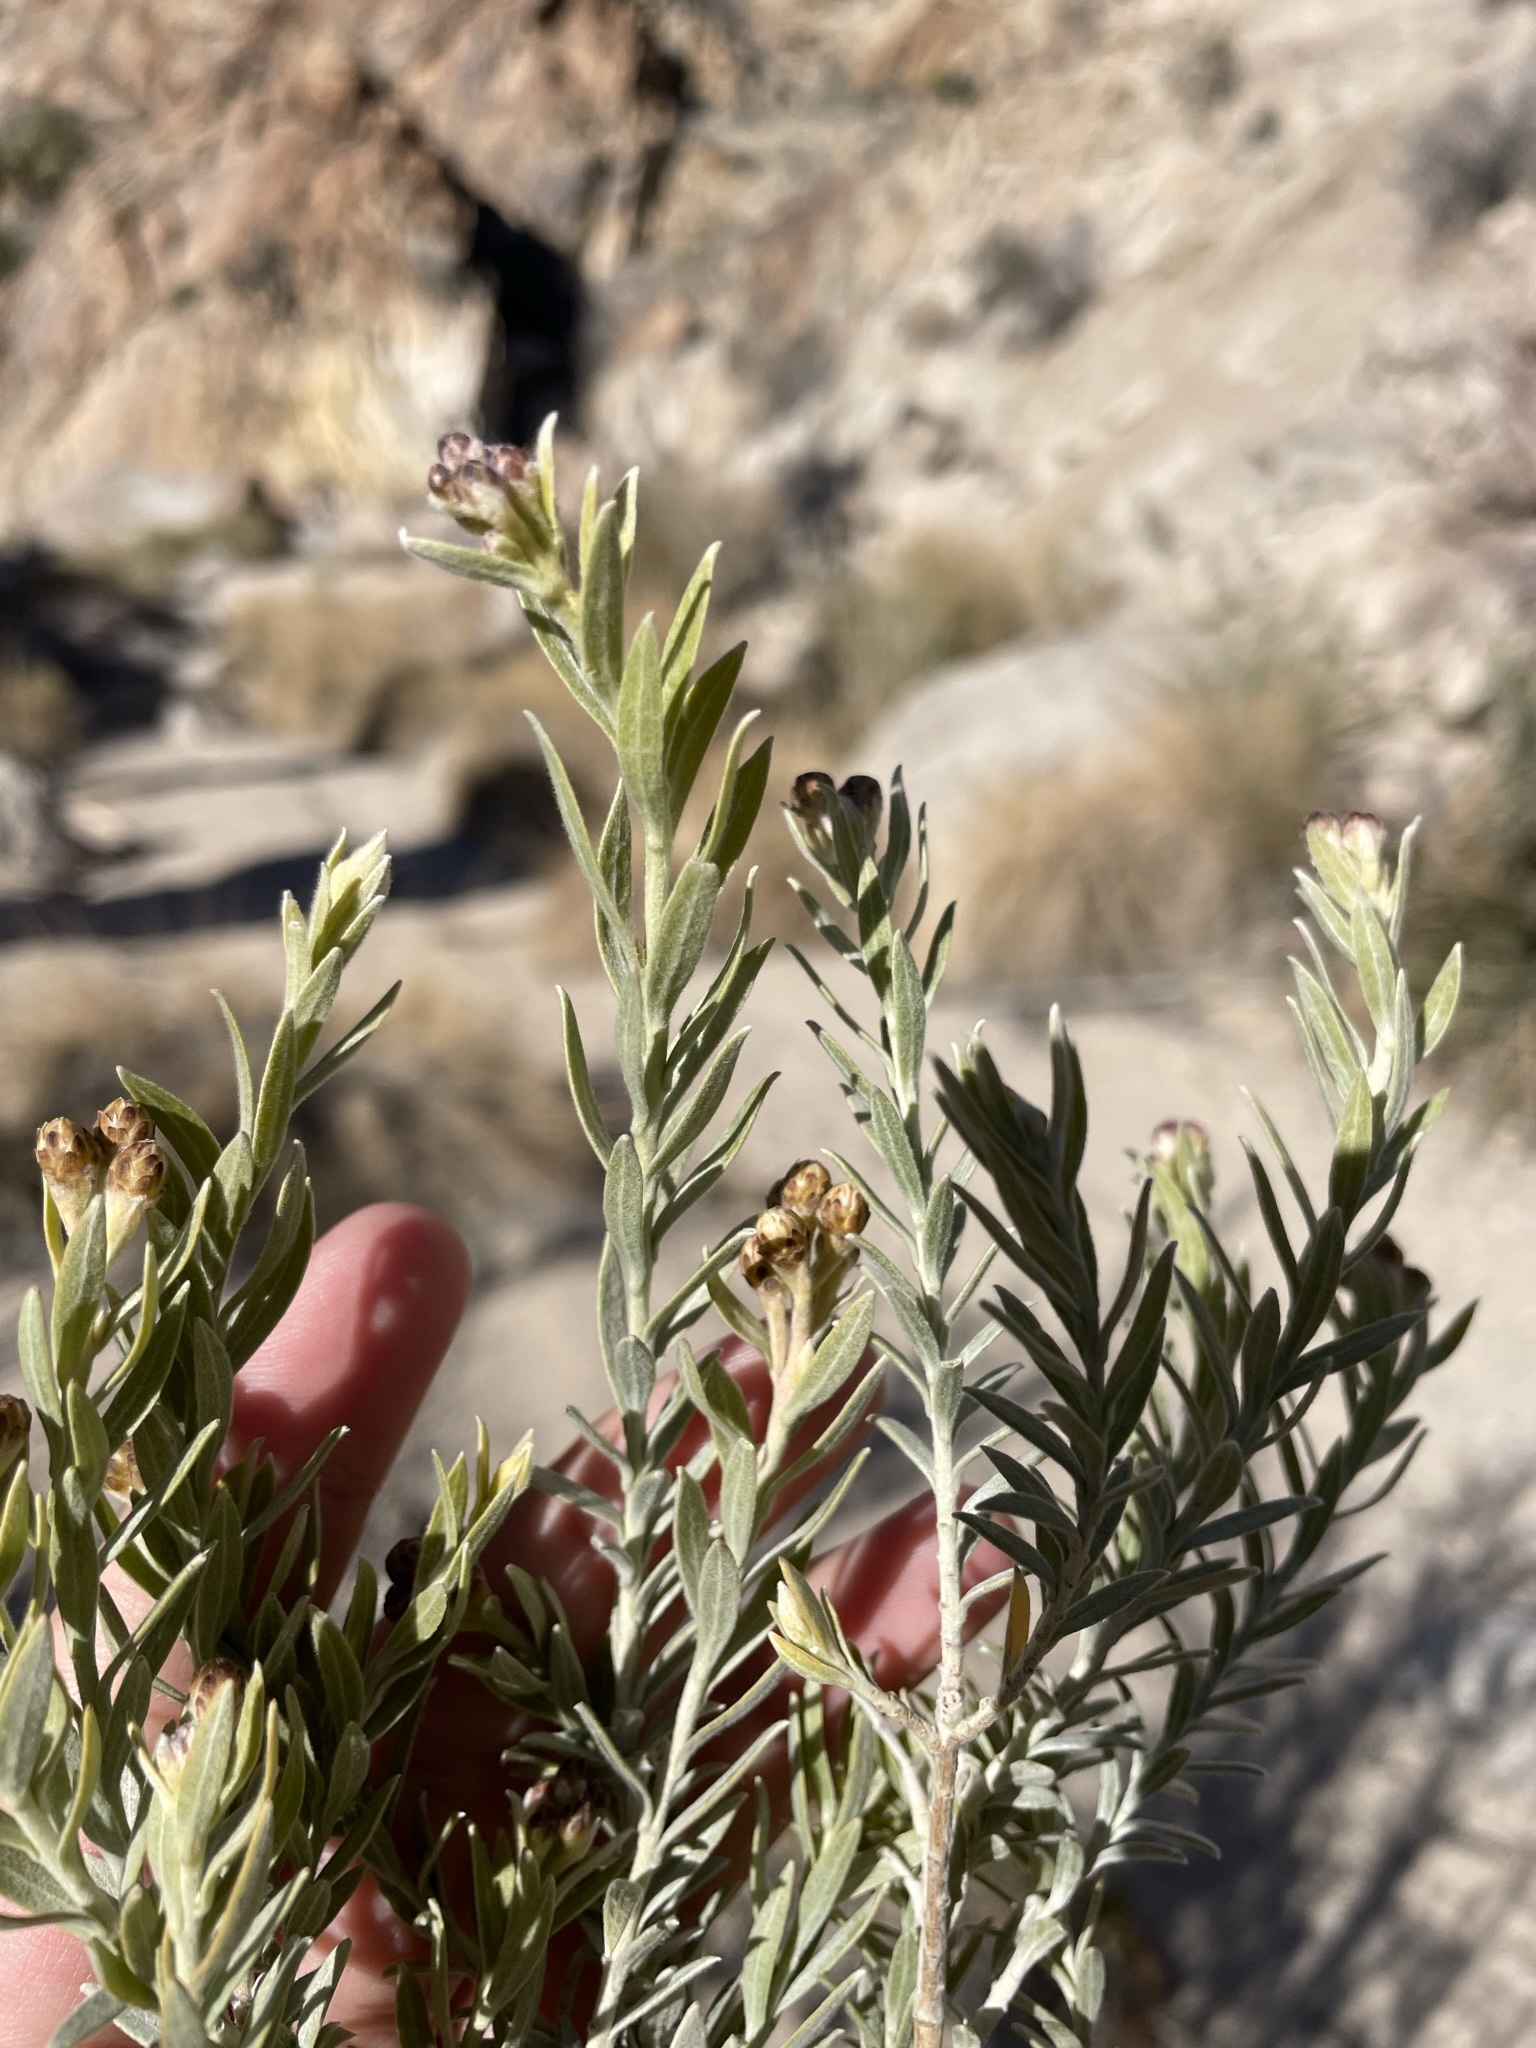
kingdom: Plantae
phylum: Tracheophyta
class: Magnoliopsida
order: Asterales
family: Asteraceae
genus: Pluchea
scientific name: Pluchea sericea
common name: Arrow-weed
